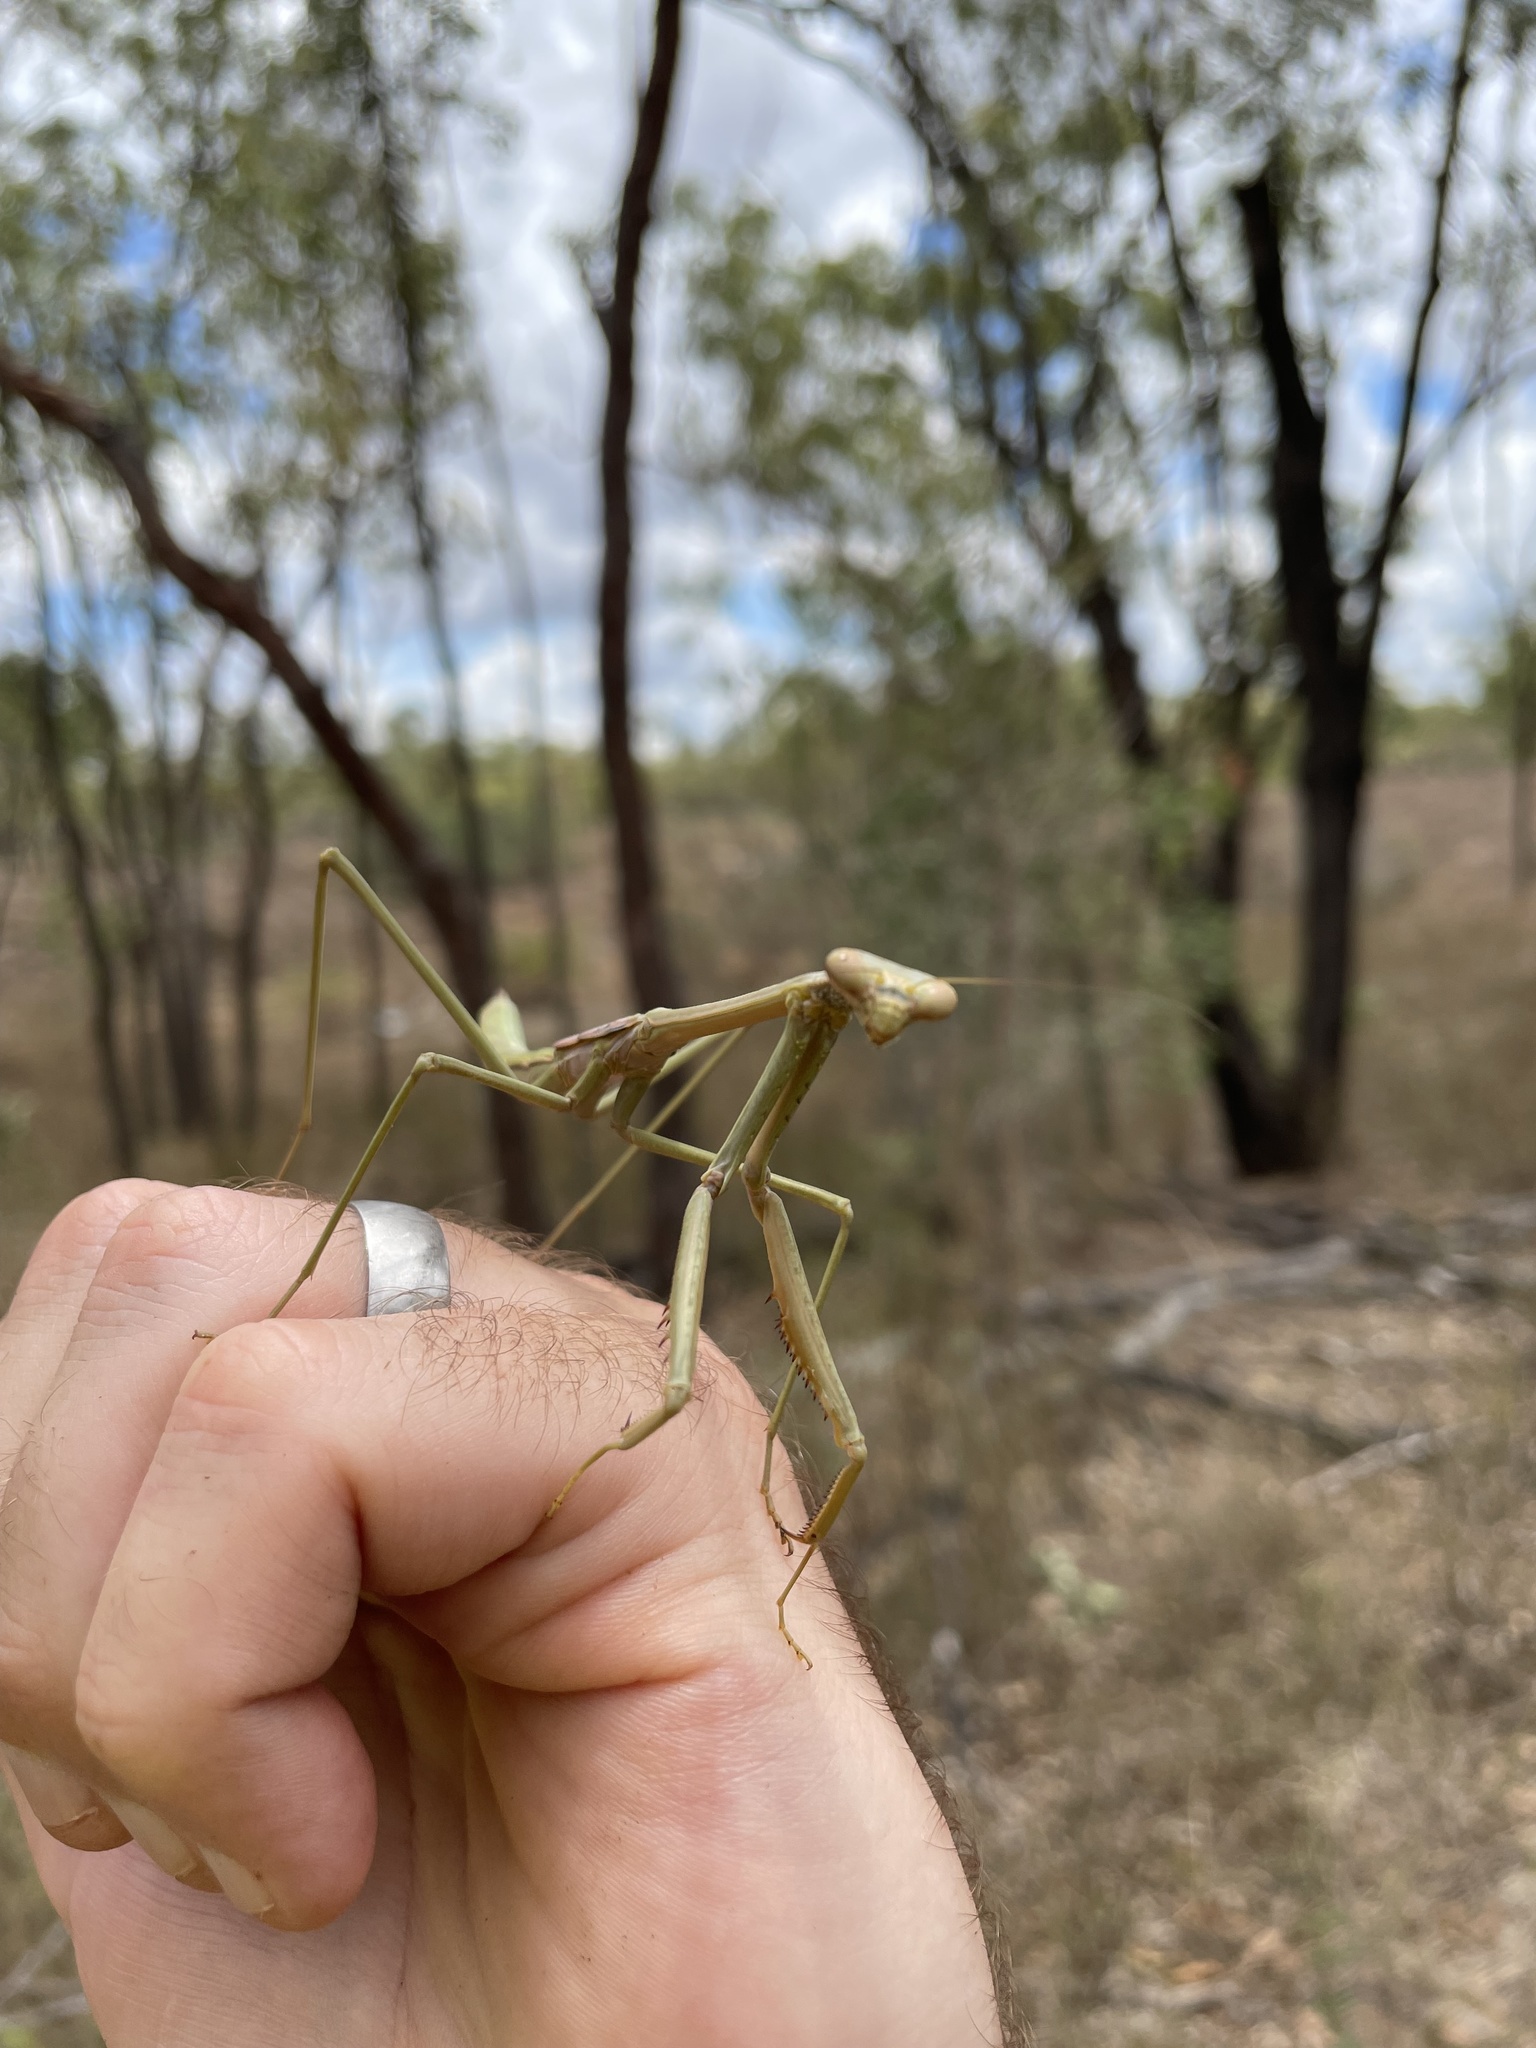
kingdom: Animalia
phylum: Arthropoda
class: Insecta
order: Mantodea
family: Mantidae
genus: Archimantis
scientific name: Archimantis latistyla
